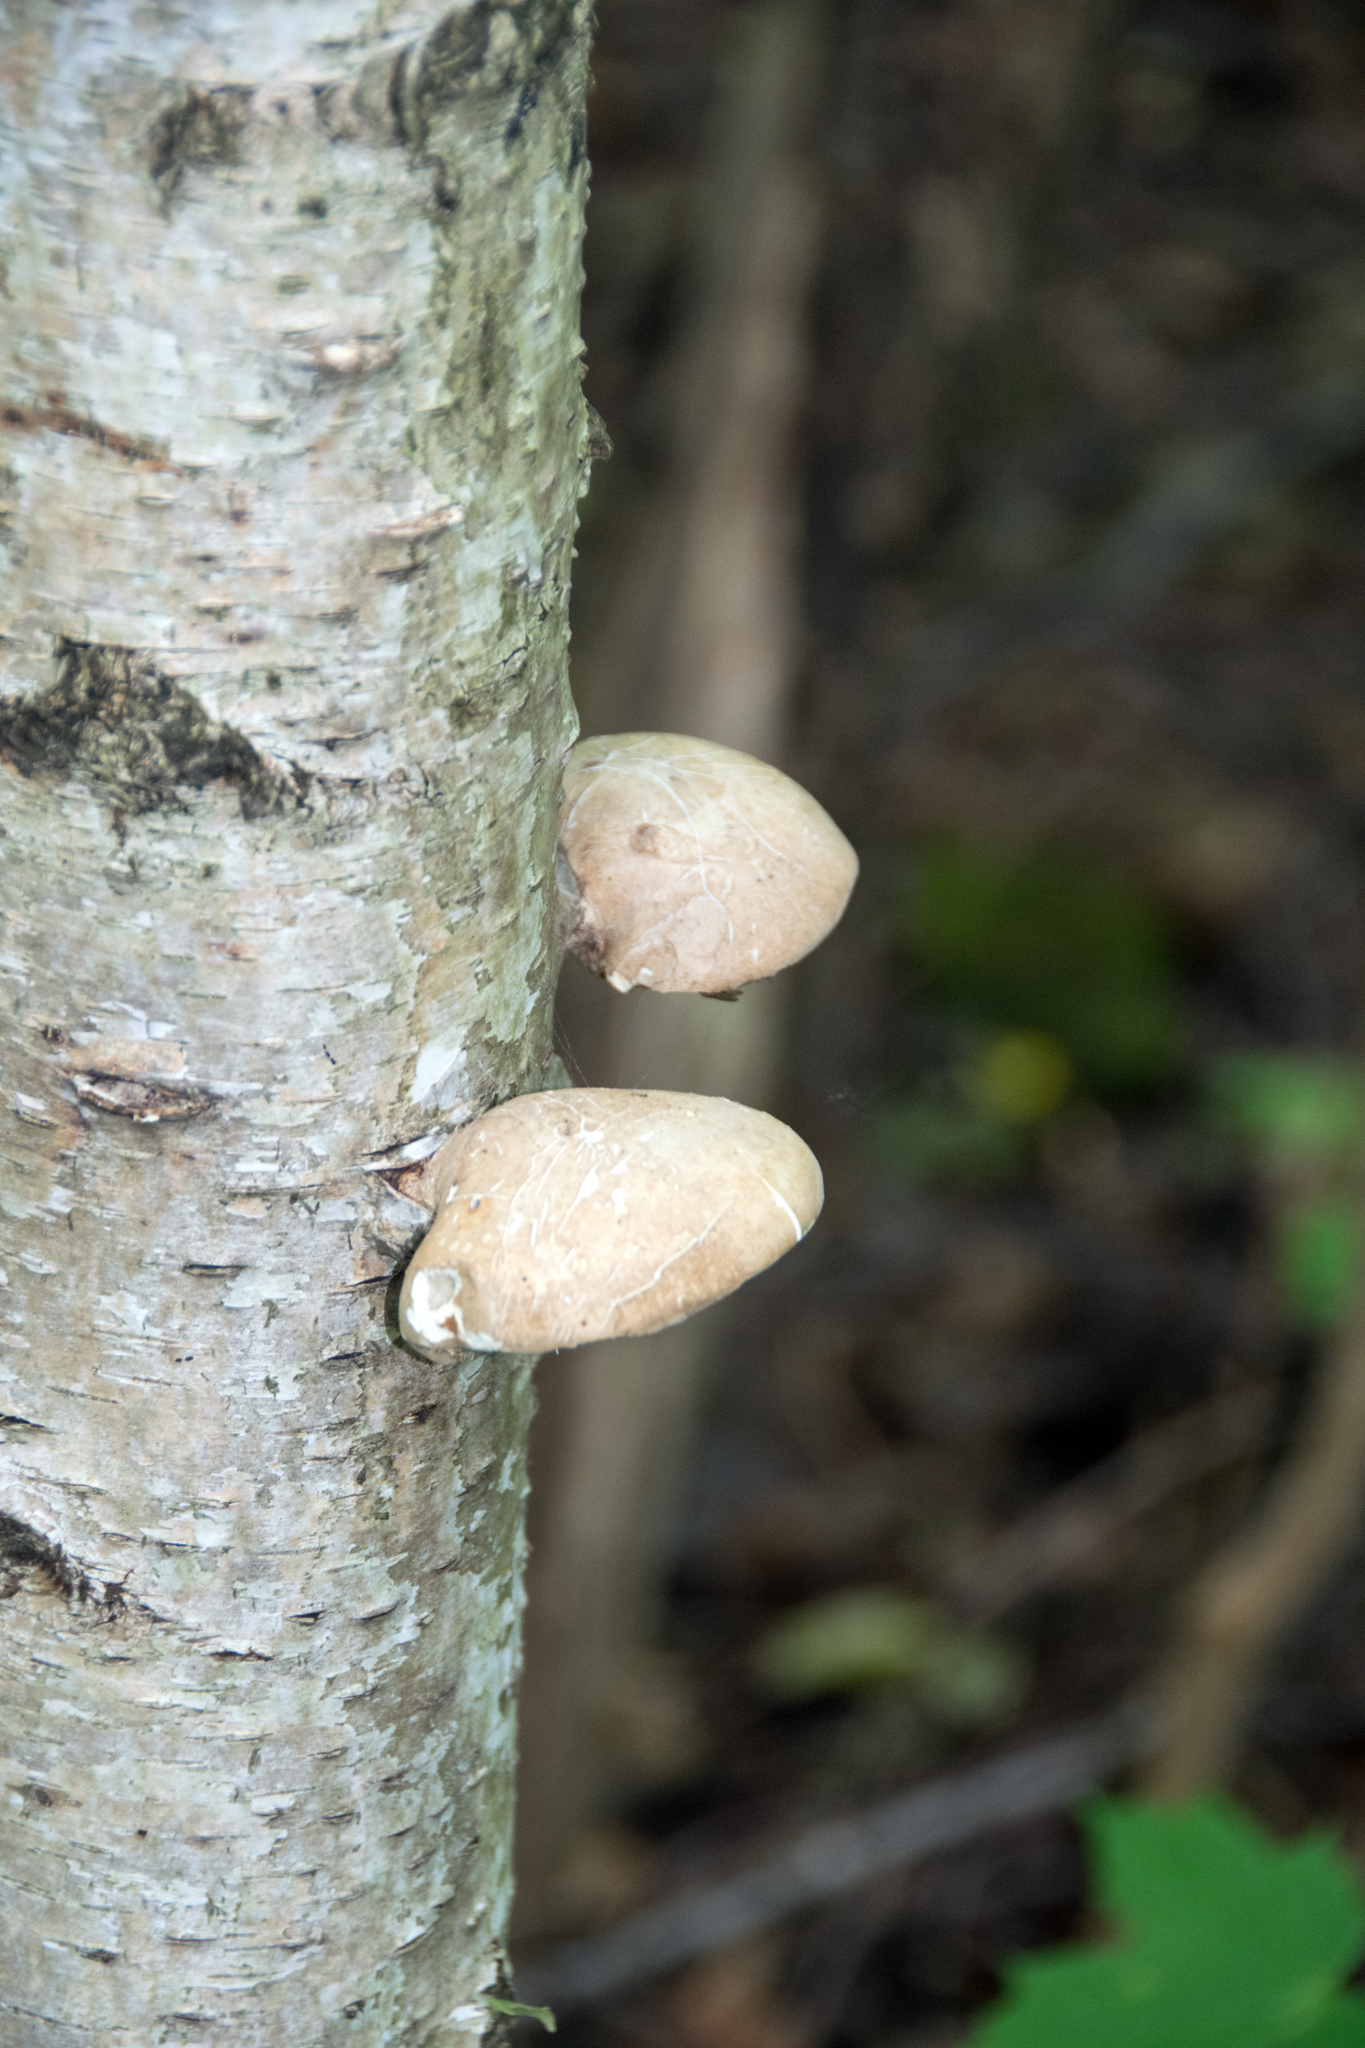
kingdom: Fungi
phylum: Basidiomycota
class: Agaricomycetes
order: Polyporales
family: Fomitopsidaceae
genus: Fomitopsis
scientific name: Fomitopsis betulina
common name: Birch polypore
